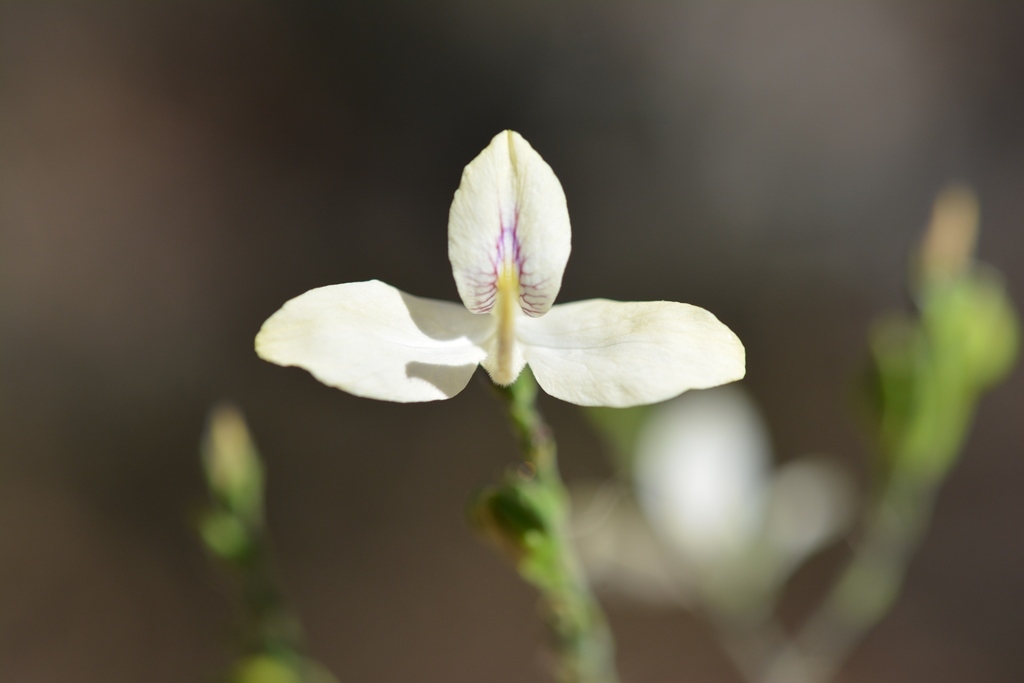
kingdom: Plantae
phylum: Tracheophyta
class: Magnoliopsida
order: Lamiales
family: Acanthaceae
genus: Carlowrightia
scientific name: Carlowrightia arizonica
